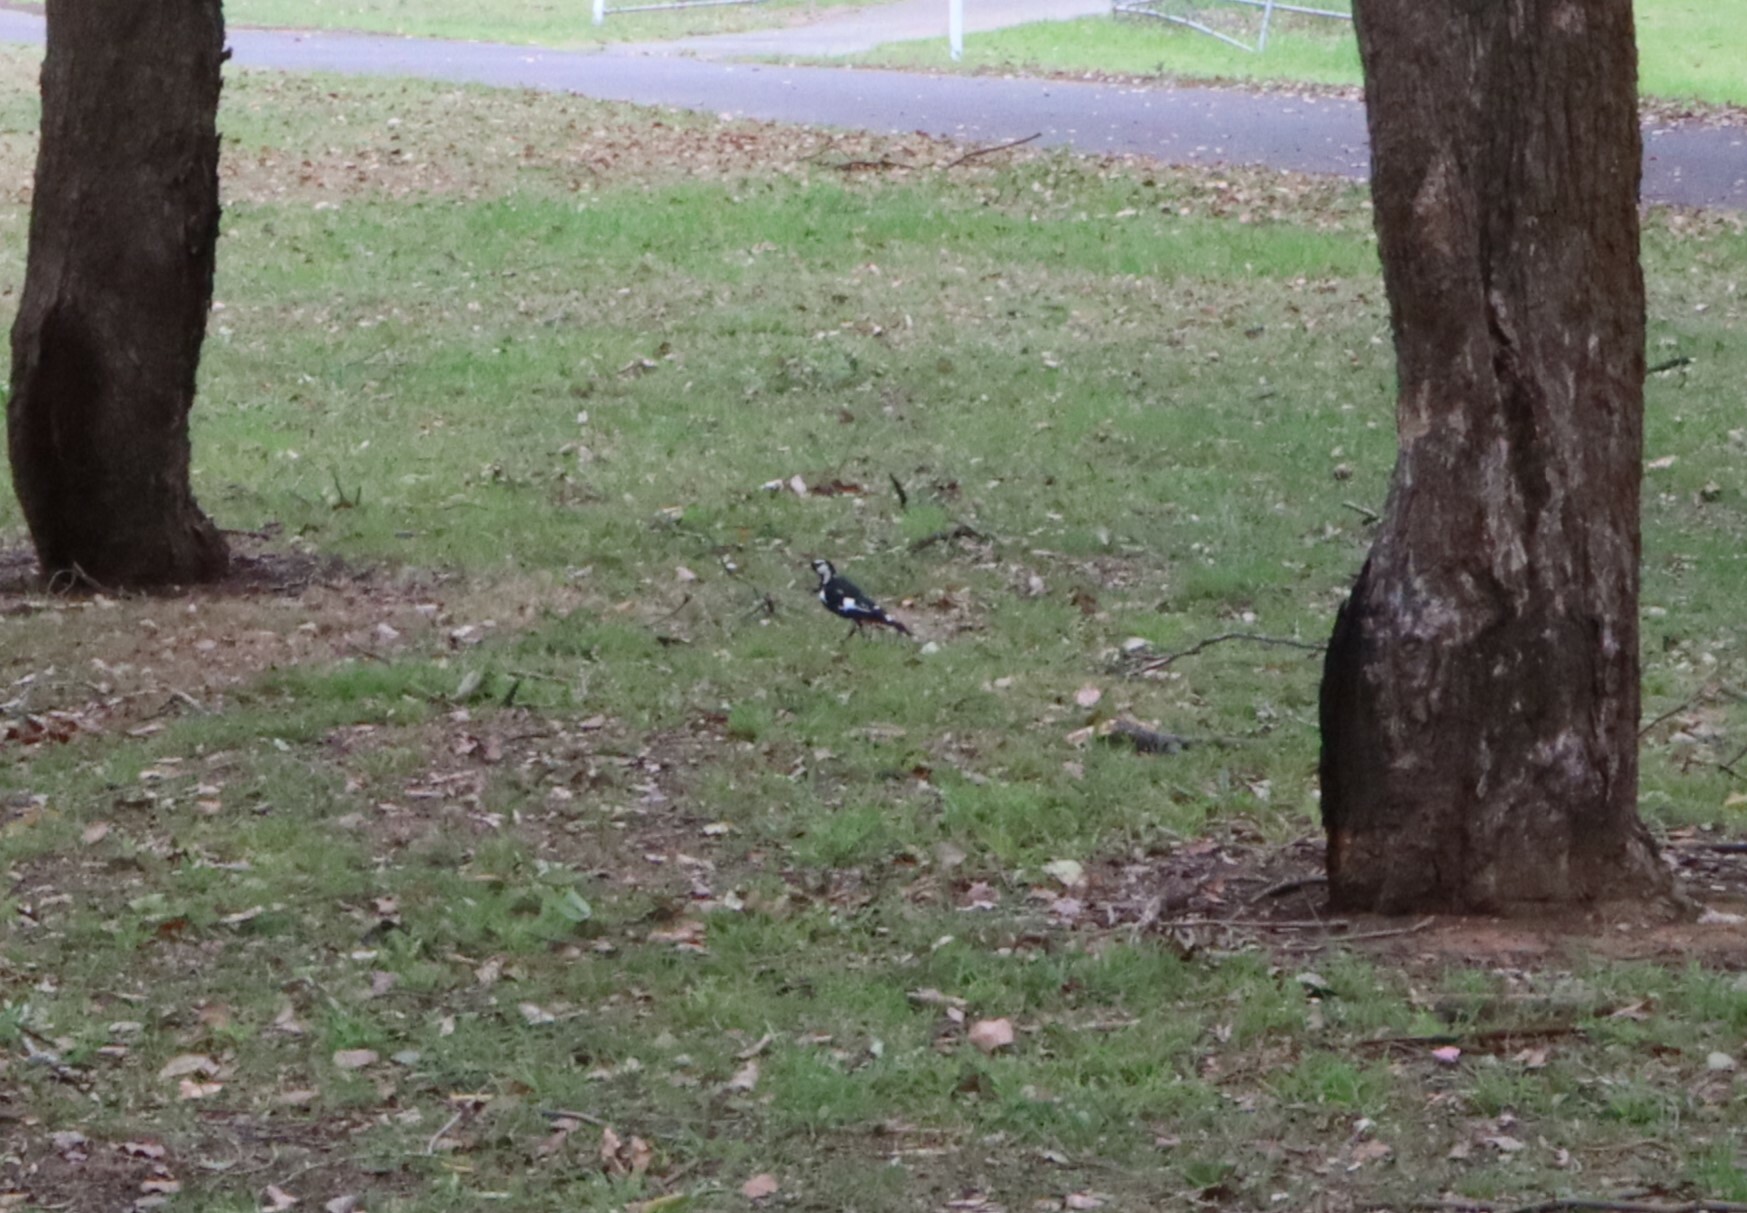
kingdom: Animalia
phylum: Chordata
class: Aves
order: Passeriformes
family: Monarchidae
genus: Grallina
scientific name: Grallina cyanoleuca
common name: Magpie-lark
